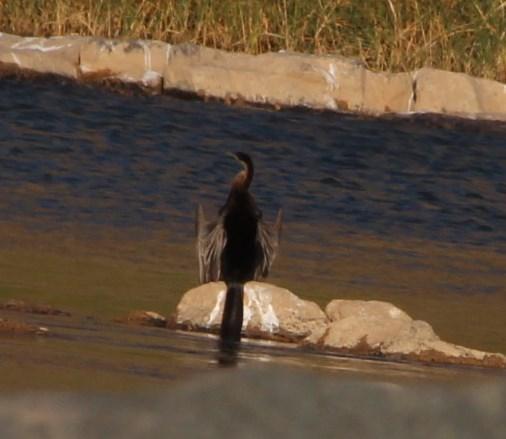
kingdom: Animalia
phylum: Chordata
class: Aves
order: Suliformes
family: Anhingidae
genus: Anhinga
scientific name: Anhinga rufa
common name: African darter
